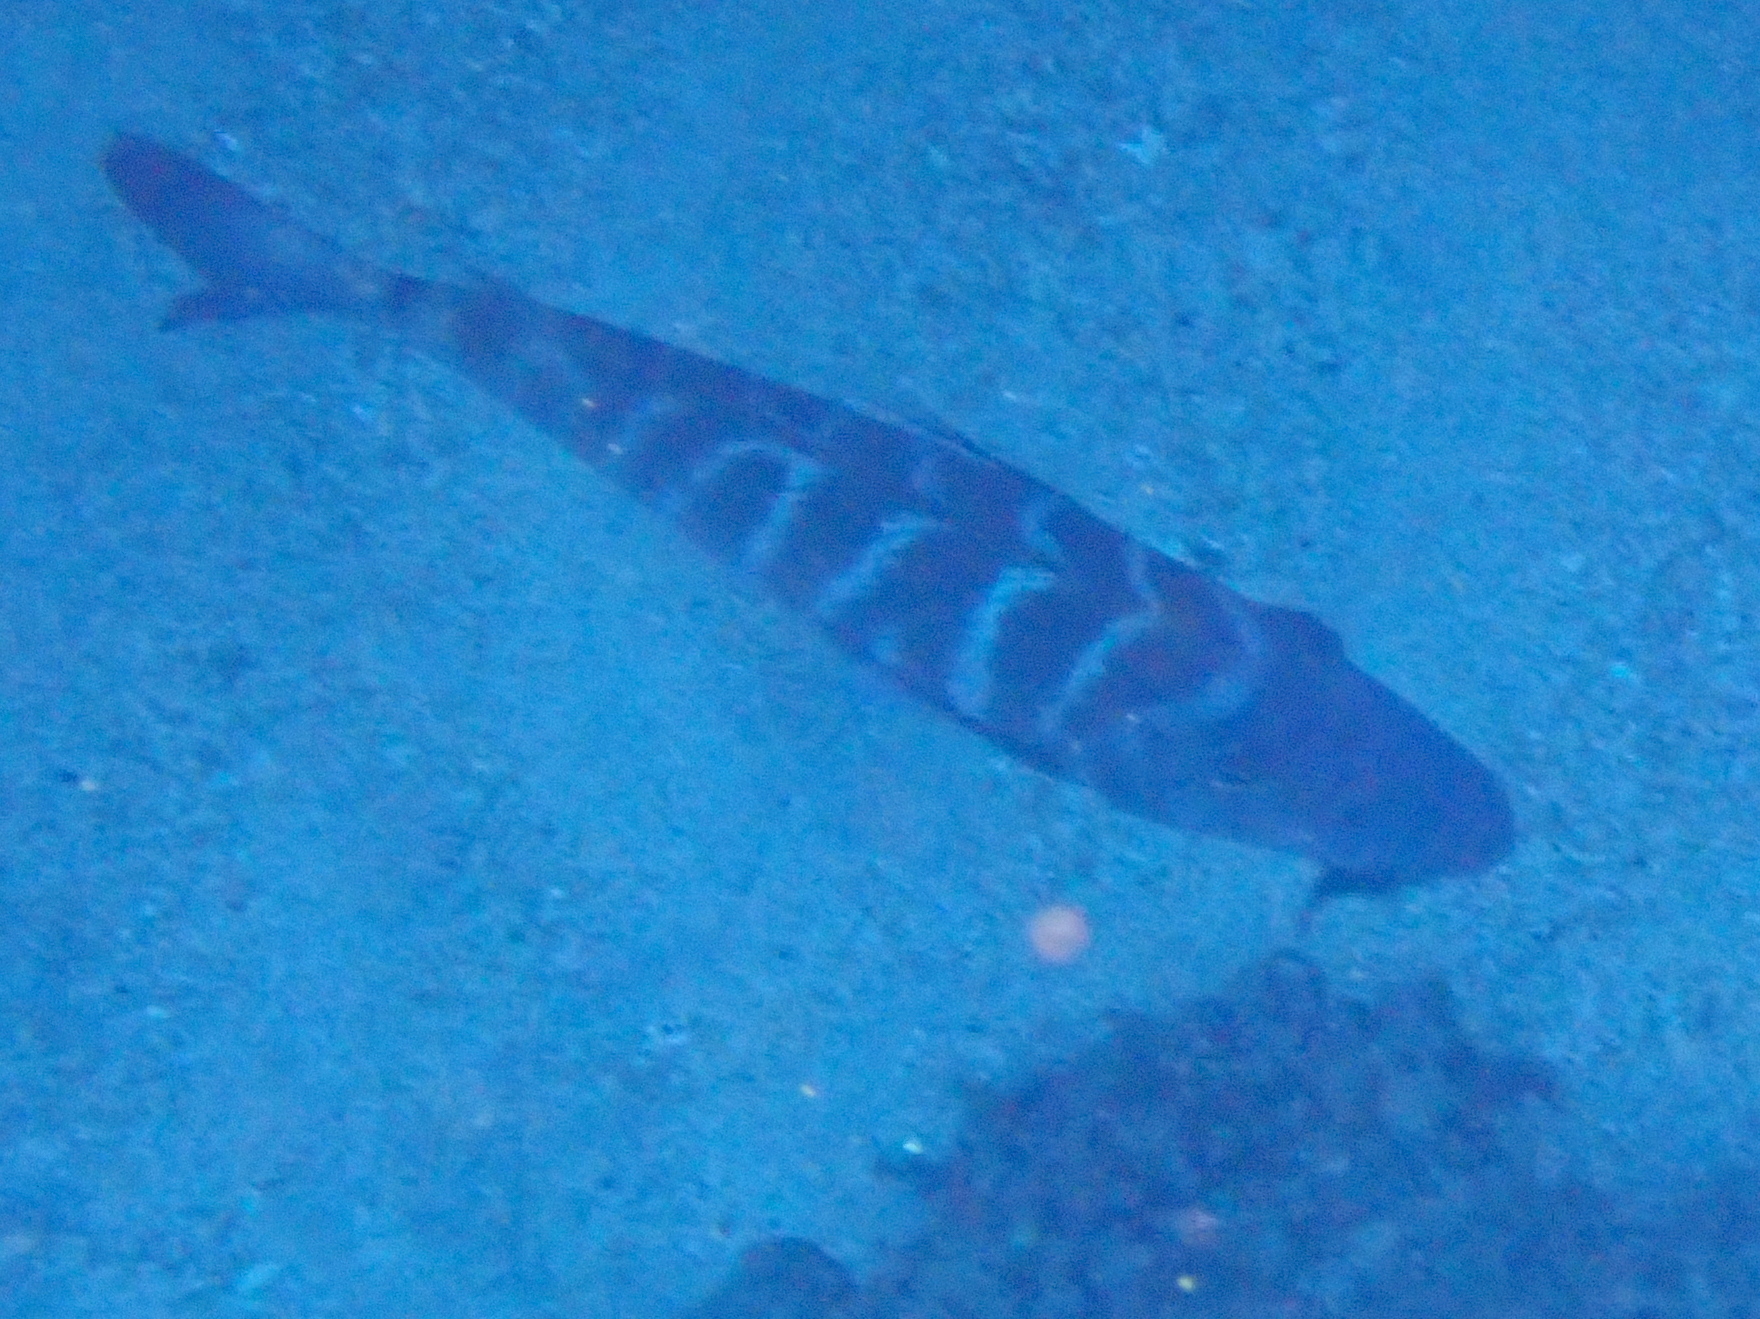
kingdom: Animalia
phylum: Chordata
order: Perciformes
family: Lethrinidae
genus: Lethrinus
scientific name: Lethrinus mahsena
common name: Sky emperor
